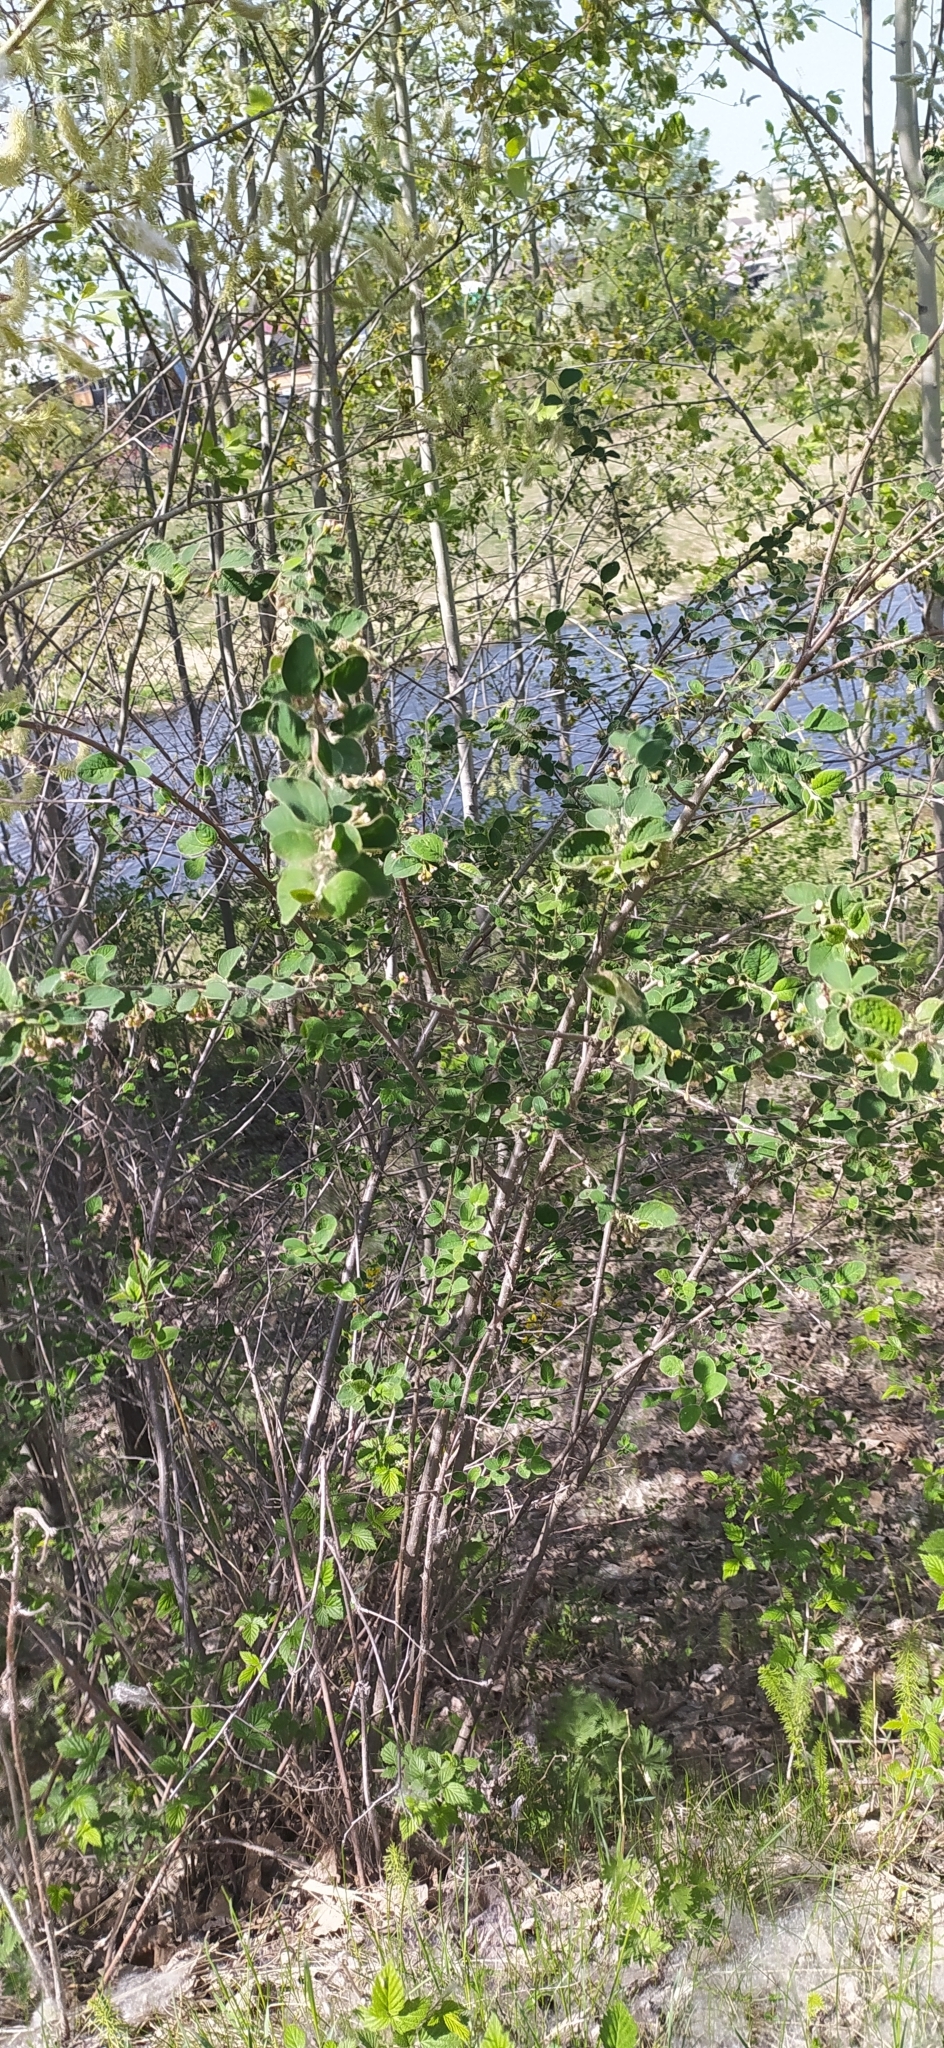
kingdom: Plantae
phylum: Tracheophyta
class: Magnoliopsida
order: Rosales
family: Rosaceae
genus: Cotoneaster
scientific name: Cotoneaster melanocarpus
